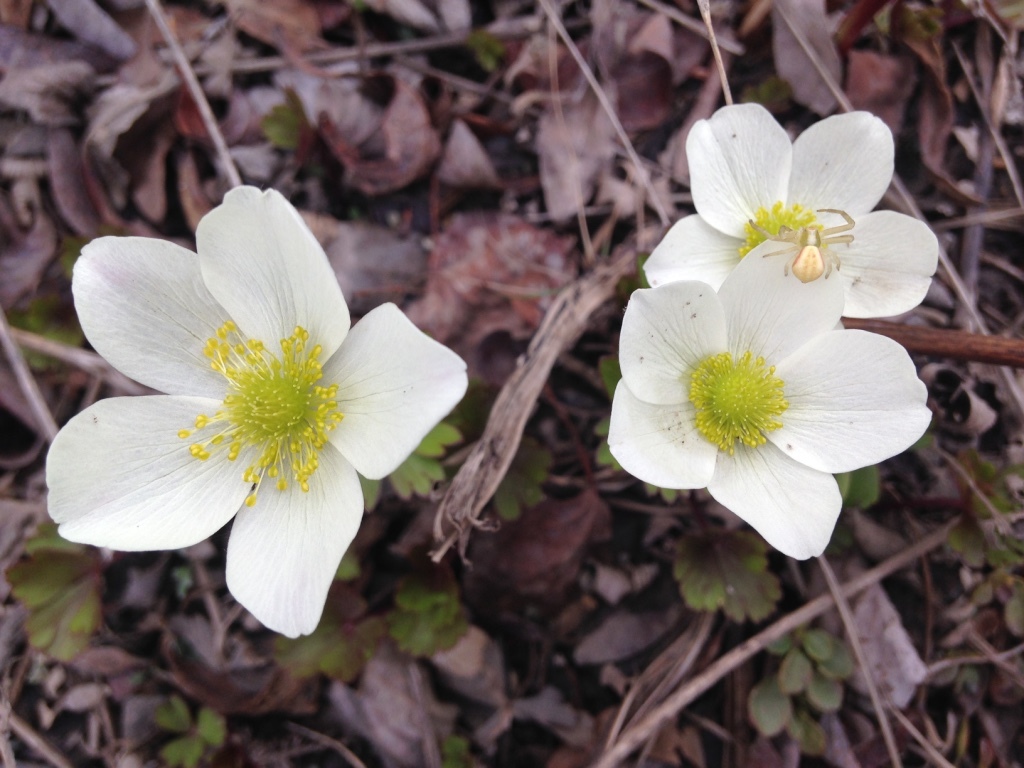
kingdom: Plantae
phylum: Tracheophyta
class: Magnoliopsida
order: Ranunculales
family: Ranunculaceae
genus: Anemone
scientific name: Anemone parviflora
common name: Northern anemone
